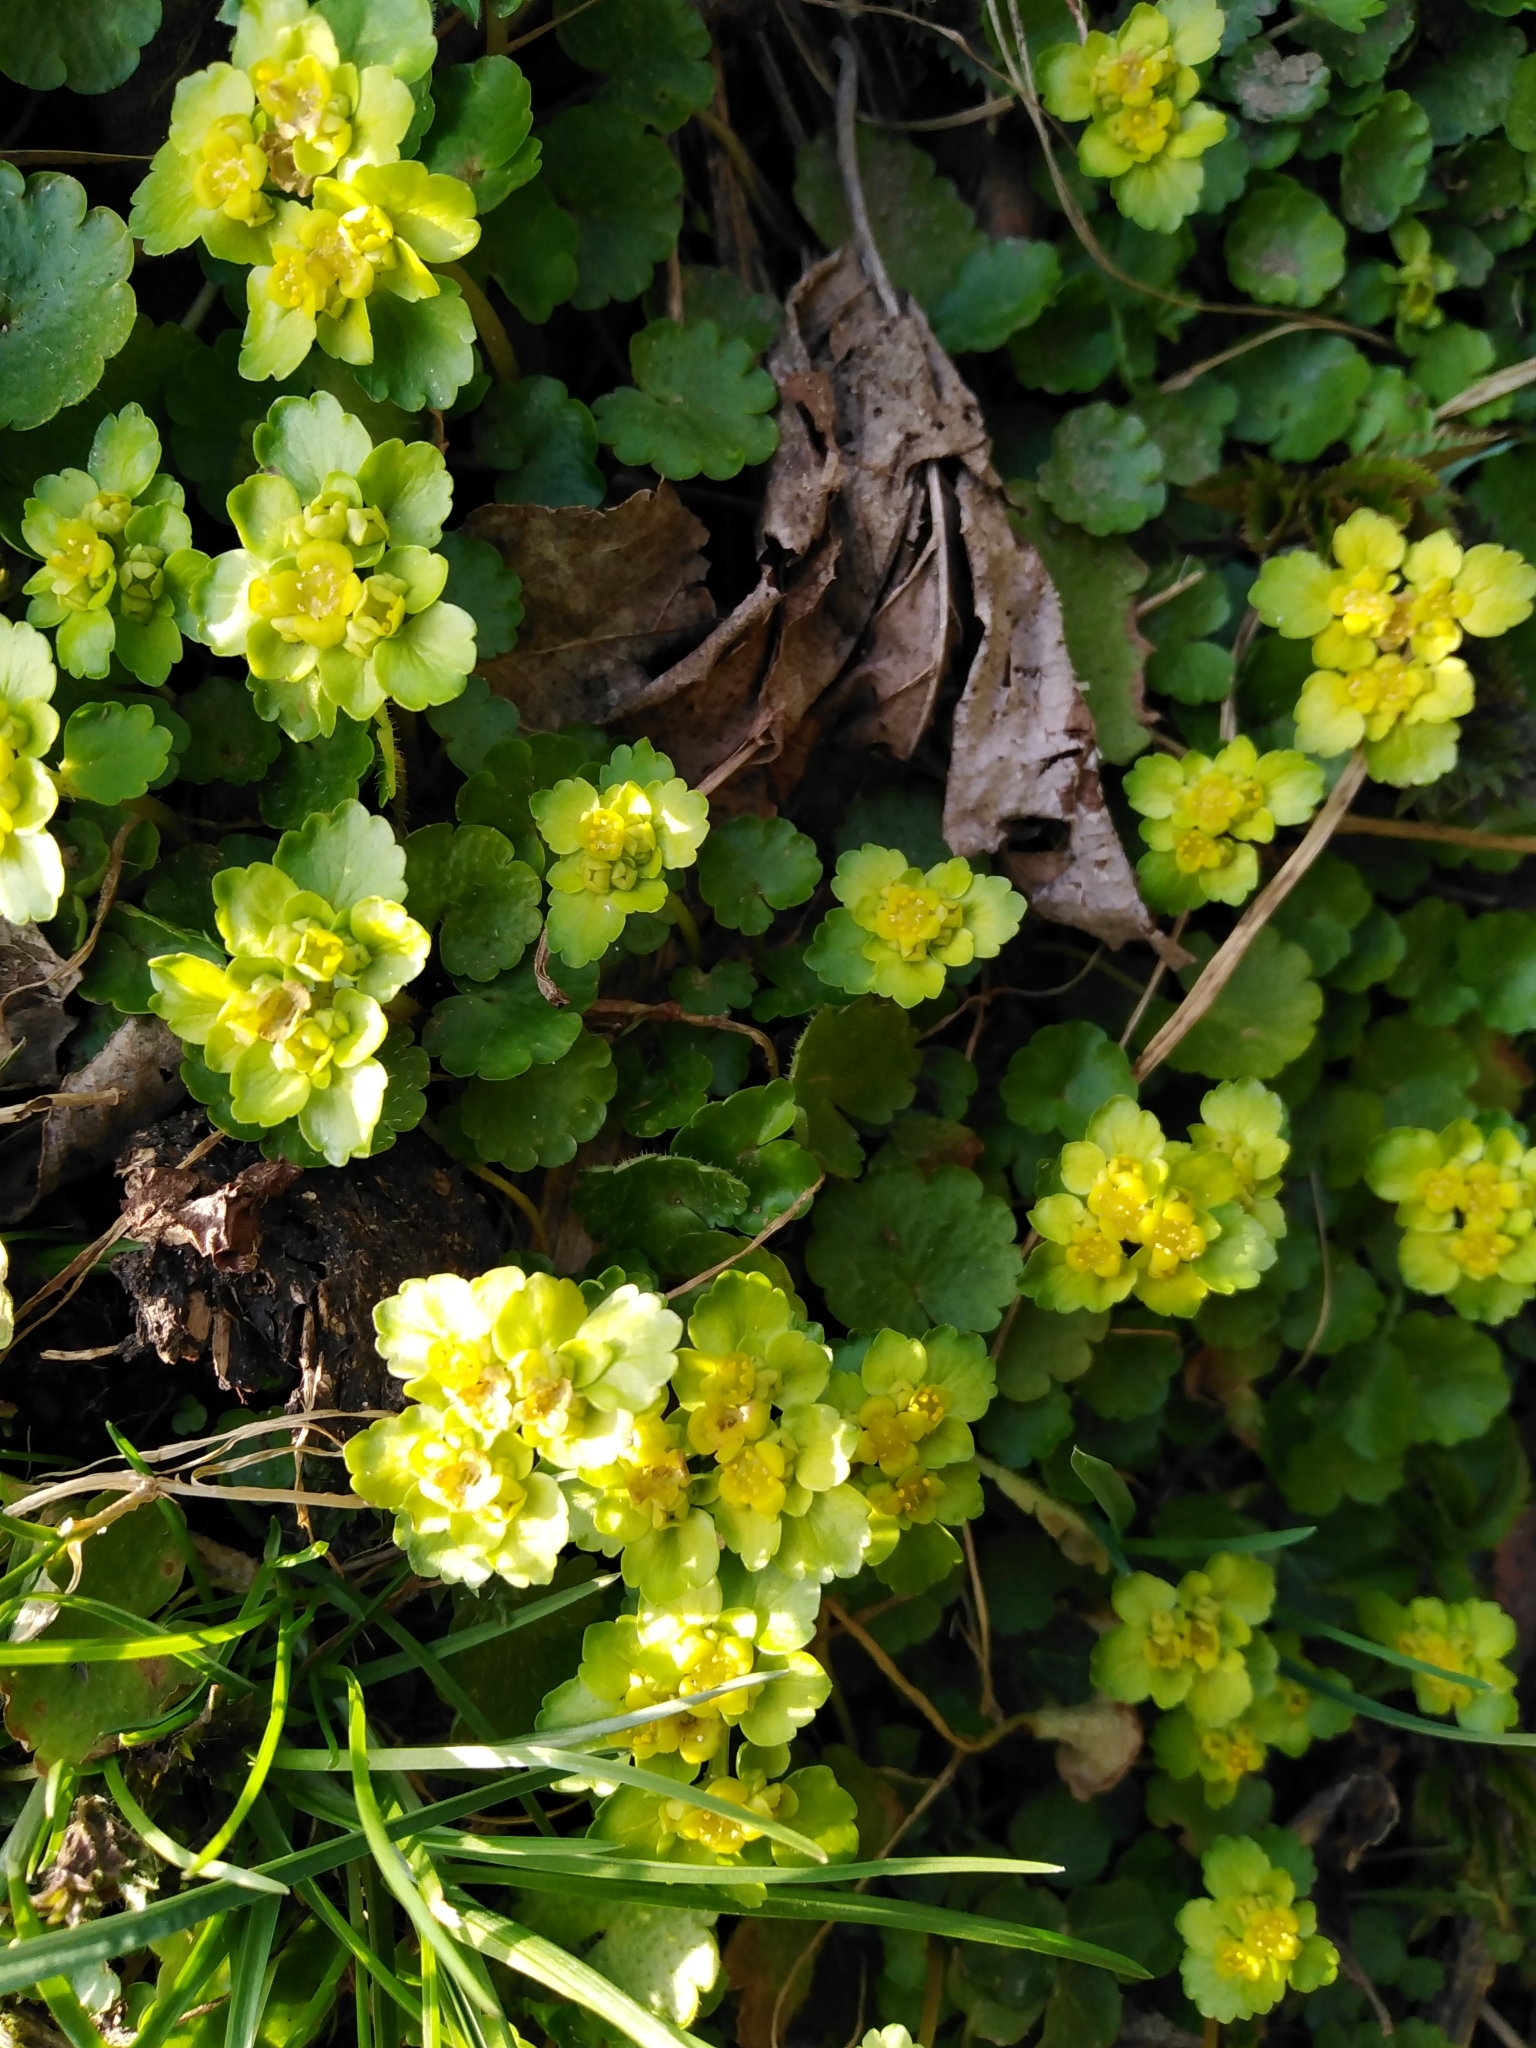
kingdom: Plantae
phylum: Tracheophyta
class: Magnoliopsida
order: Saxifragales
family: Saxifragaceae
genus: Chrysosplenium
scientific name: Chrysosplenium alternifolium
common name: Alternate-leaved golden-saxifrage
